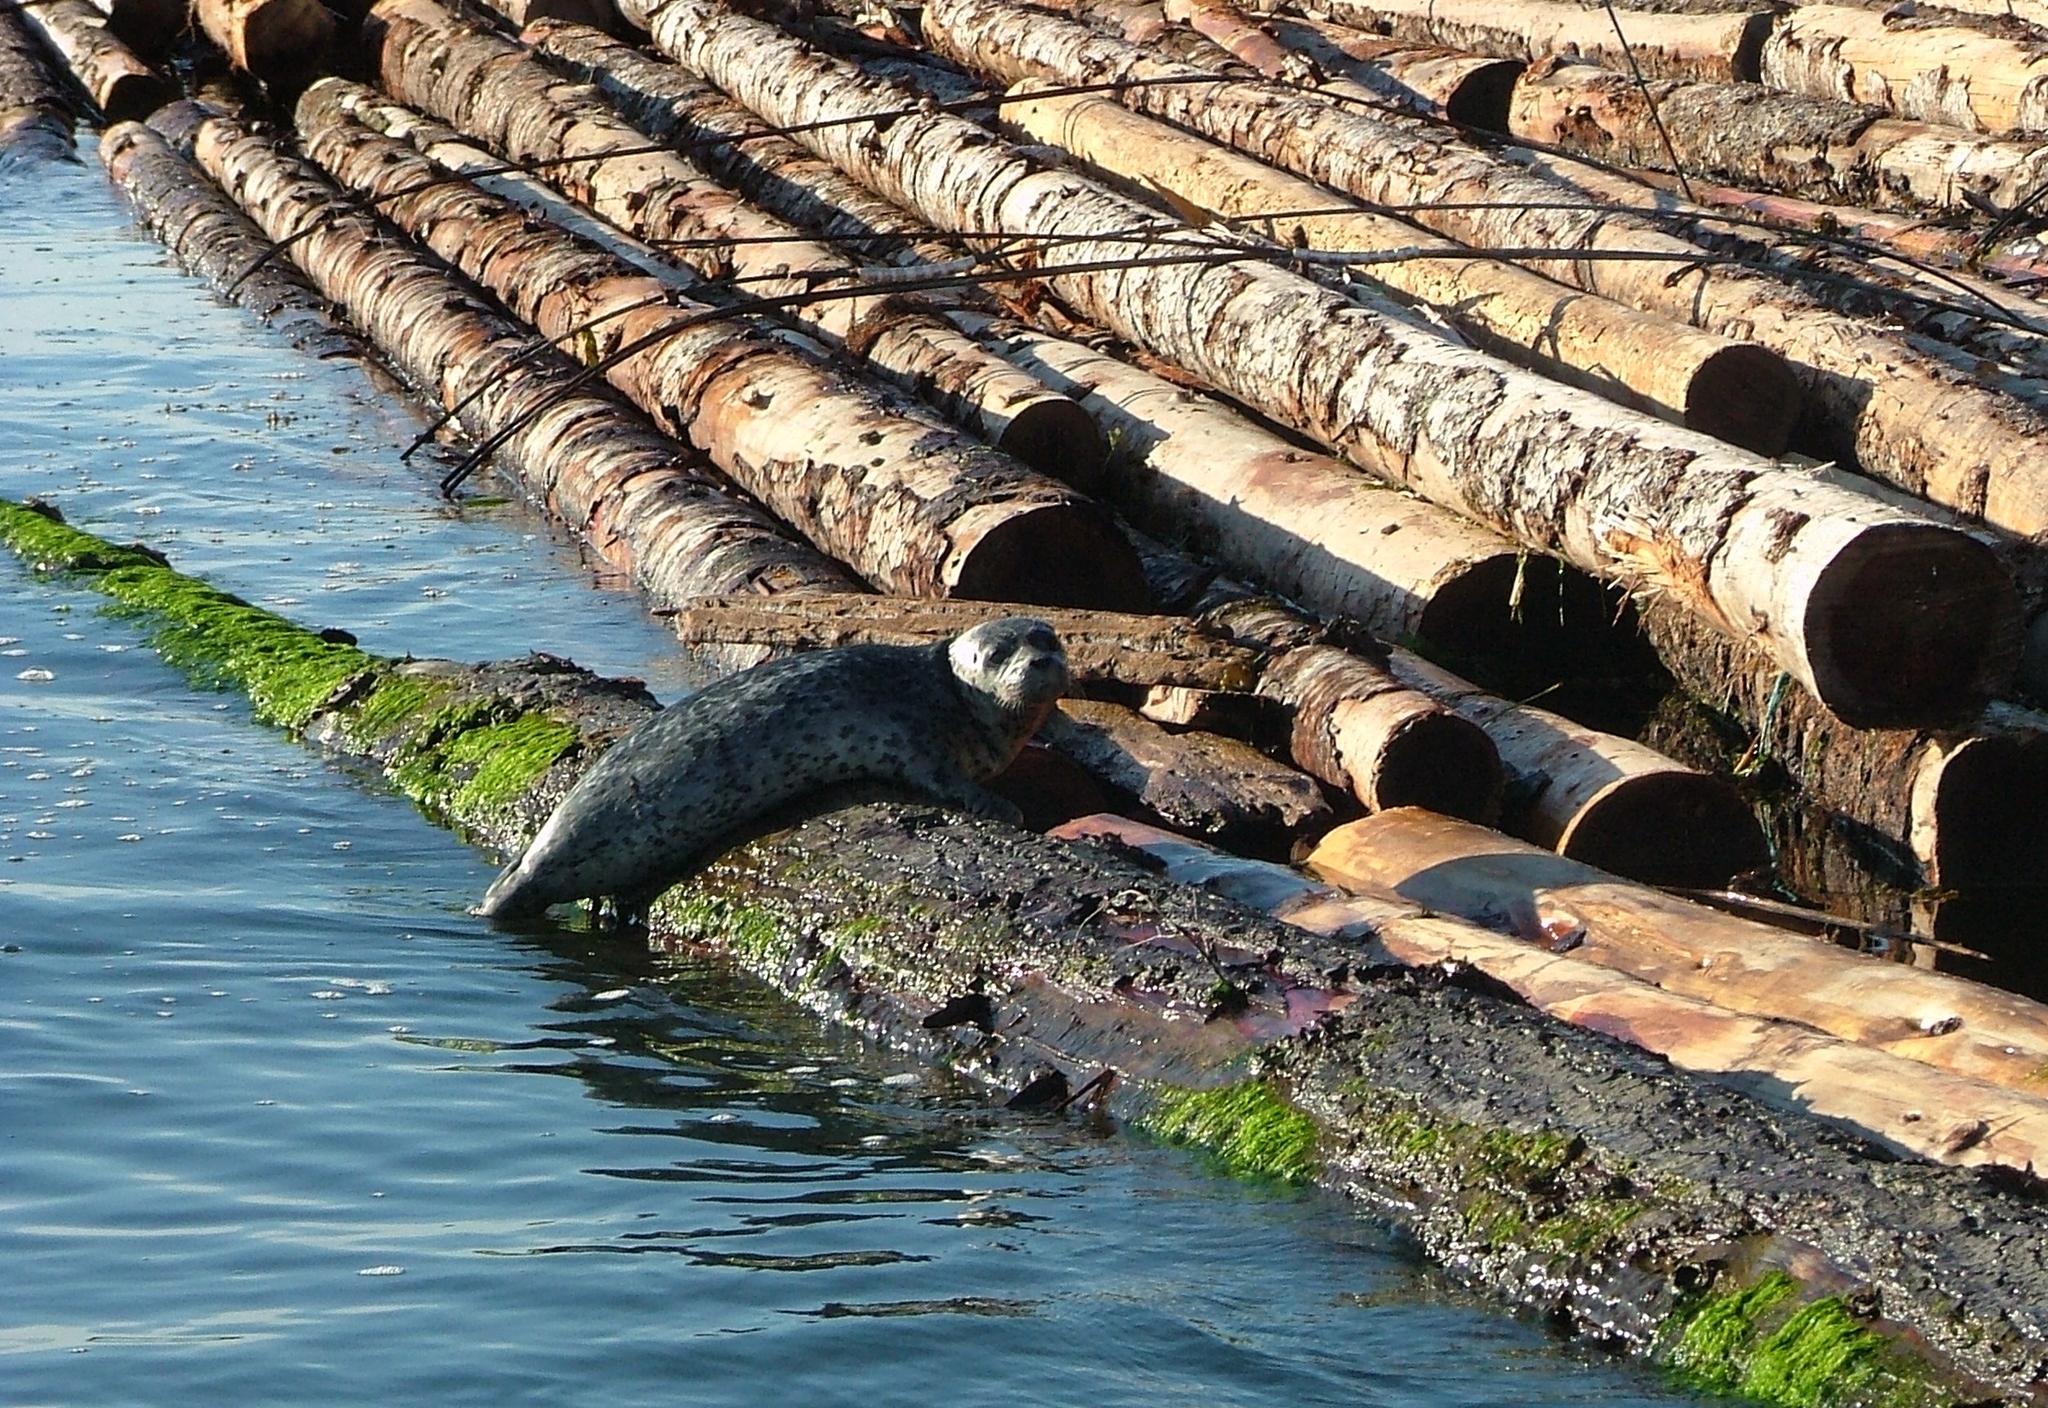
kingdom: Animalia
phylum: Chordata
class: Mammalia
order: Carnivora
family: Phocidae
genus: Phoca
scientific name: Phoca vitulina
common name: Harbor seal
